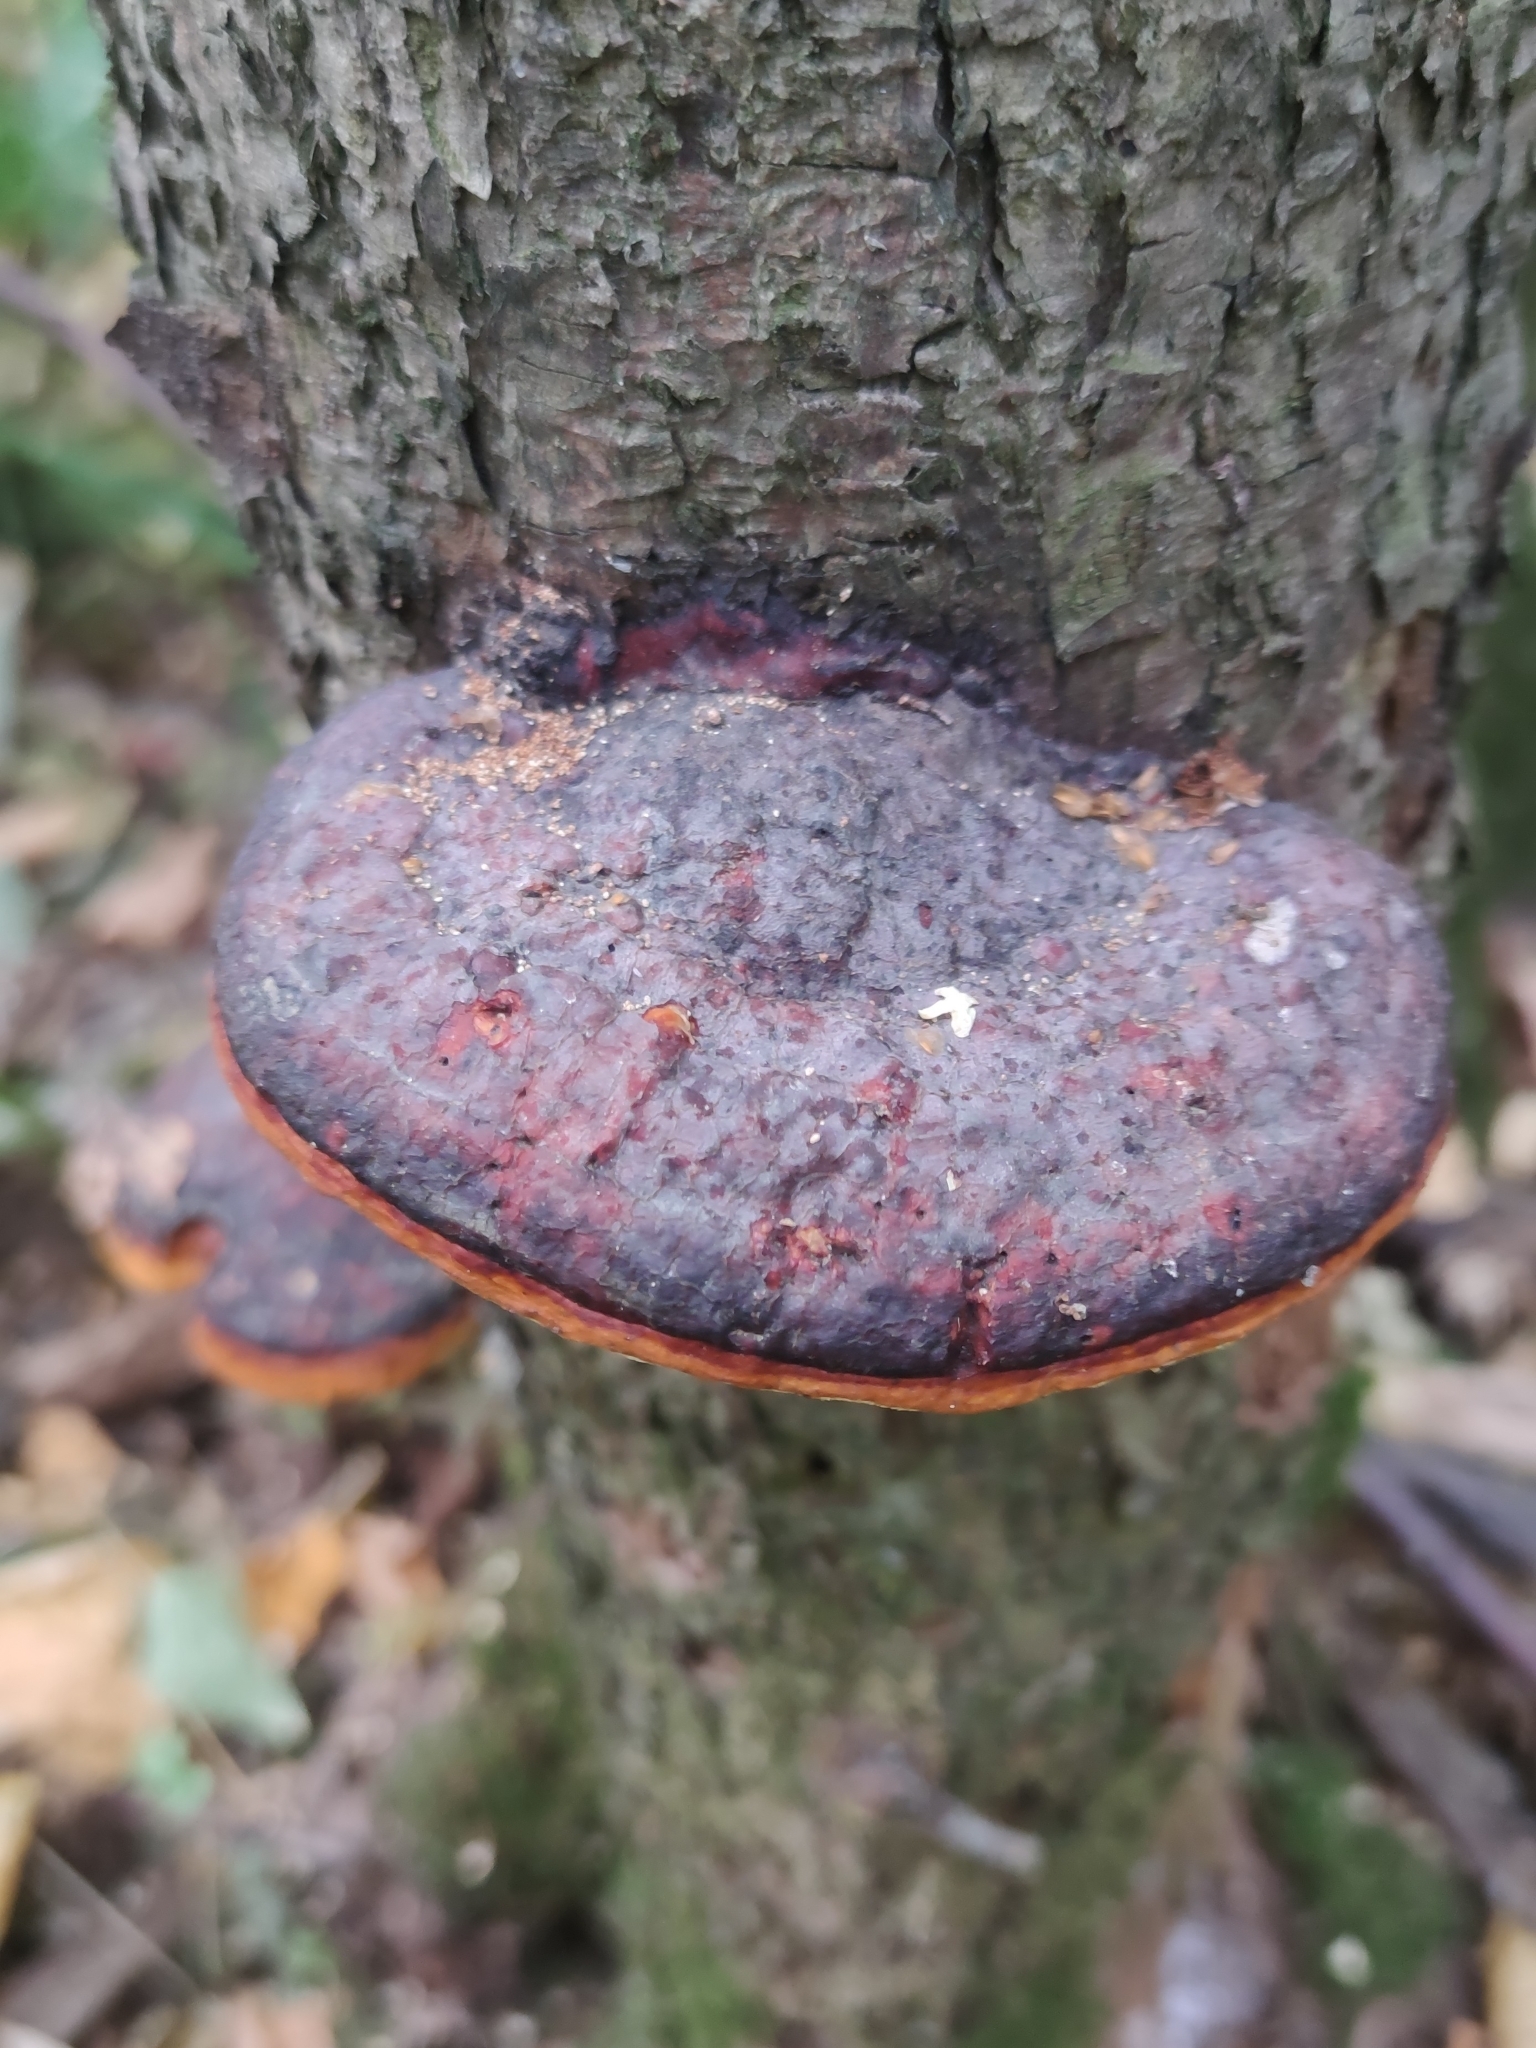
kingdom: Fungi
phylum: Basidiomycota
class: Agaricomycetes
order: Polyporales
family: Fomitopsidaceae
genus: Fomitopsis
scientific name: Fomitopsis pinicola
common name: Red-belted bracket
